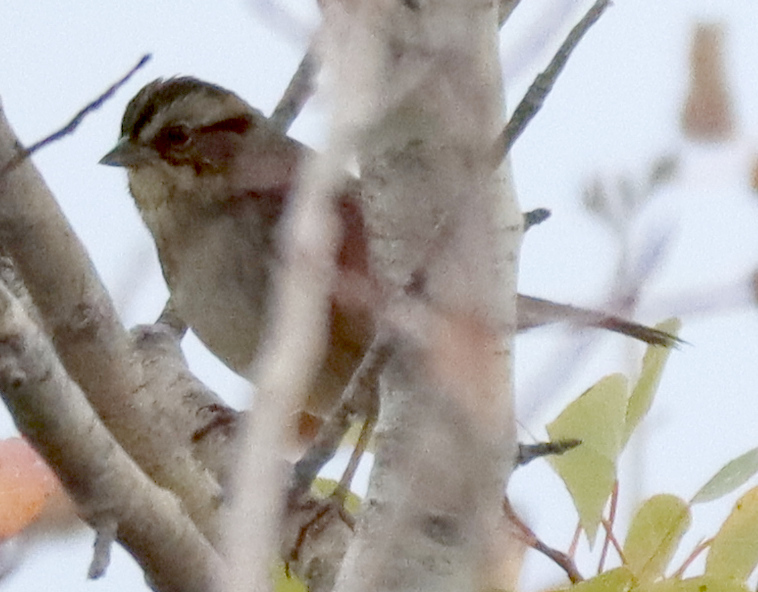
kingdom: Animalia
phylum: Chordata
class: Aves
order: Passeriformes
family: Passerellidae
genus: Melospiza
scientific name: Melospiza georgiana
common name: Swamp sparrow
